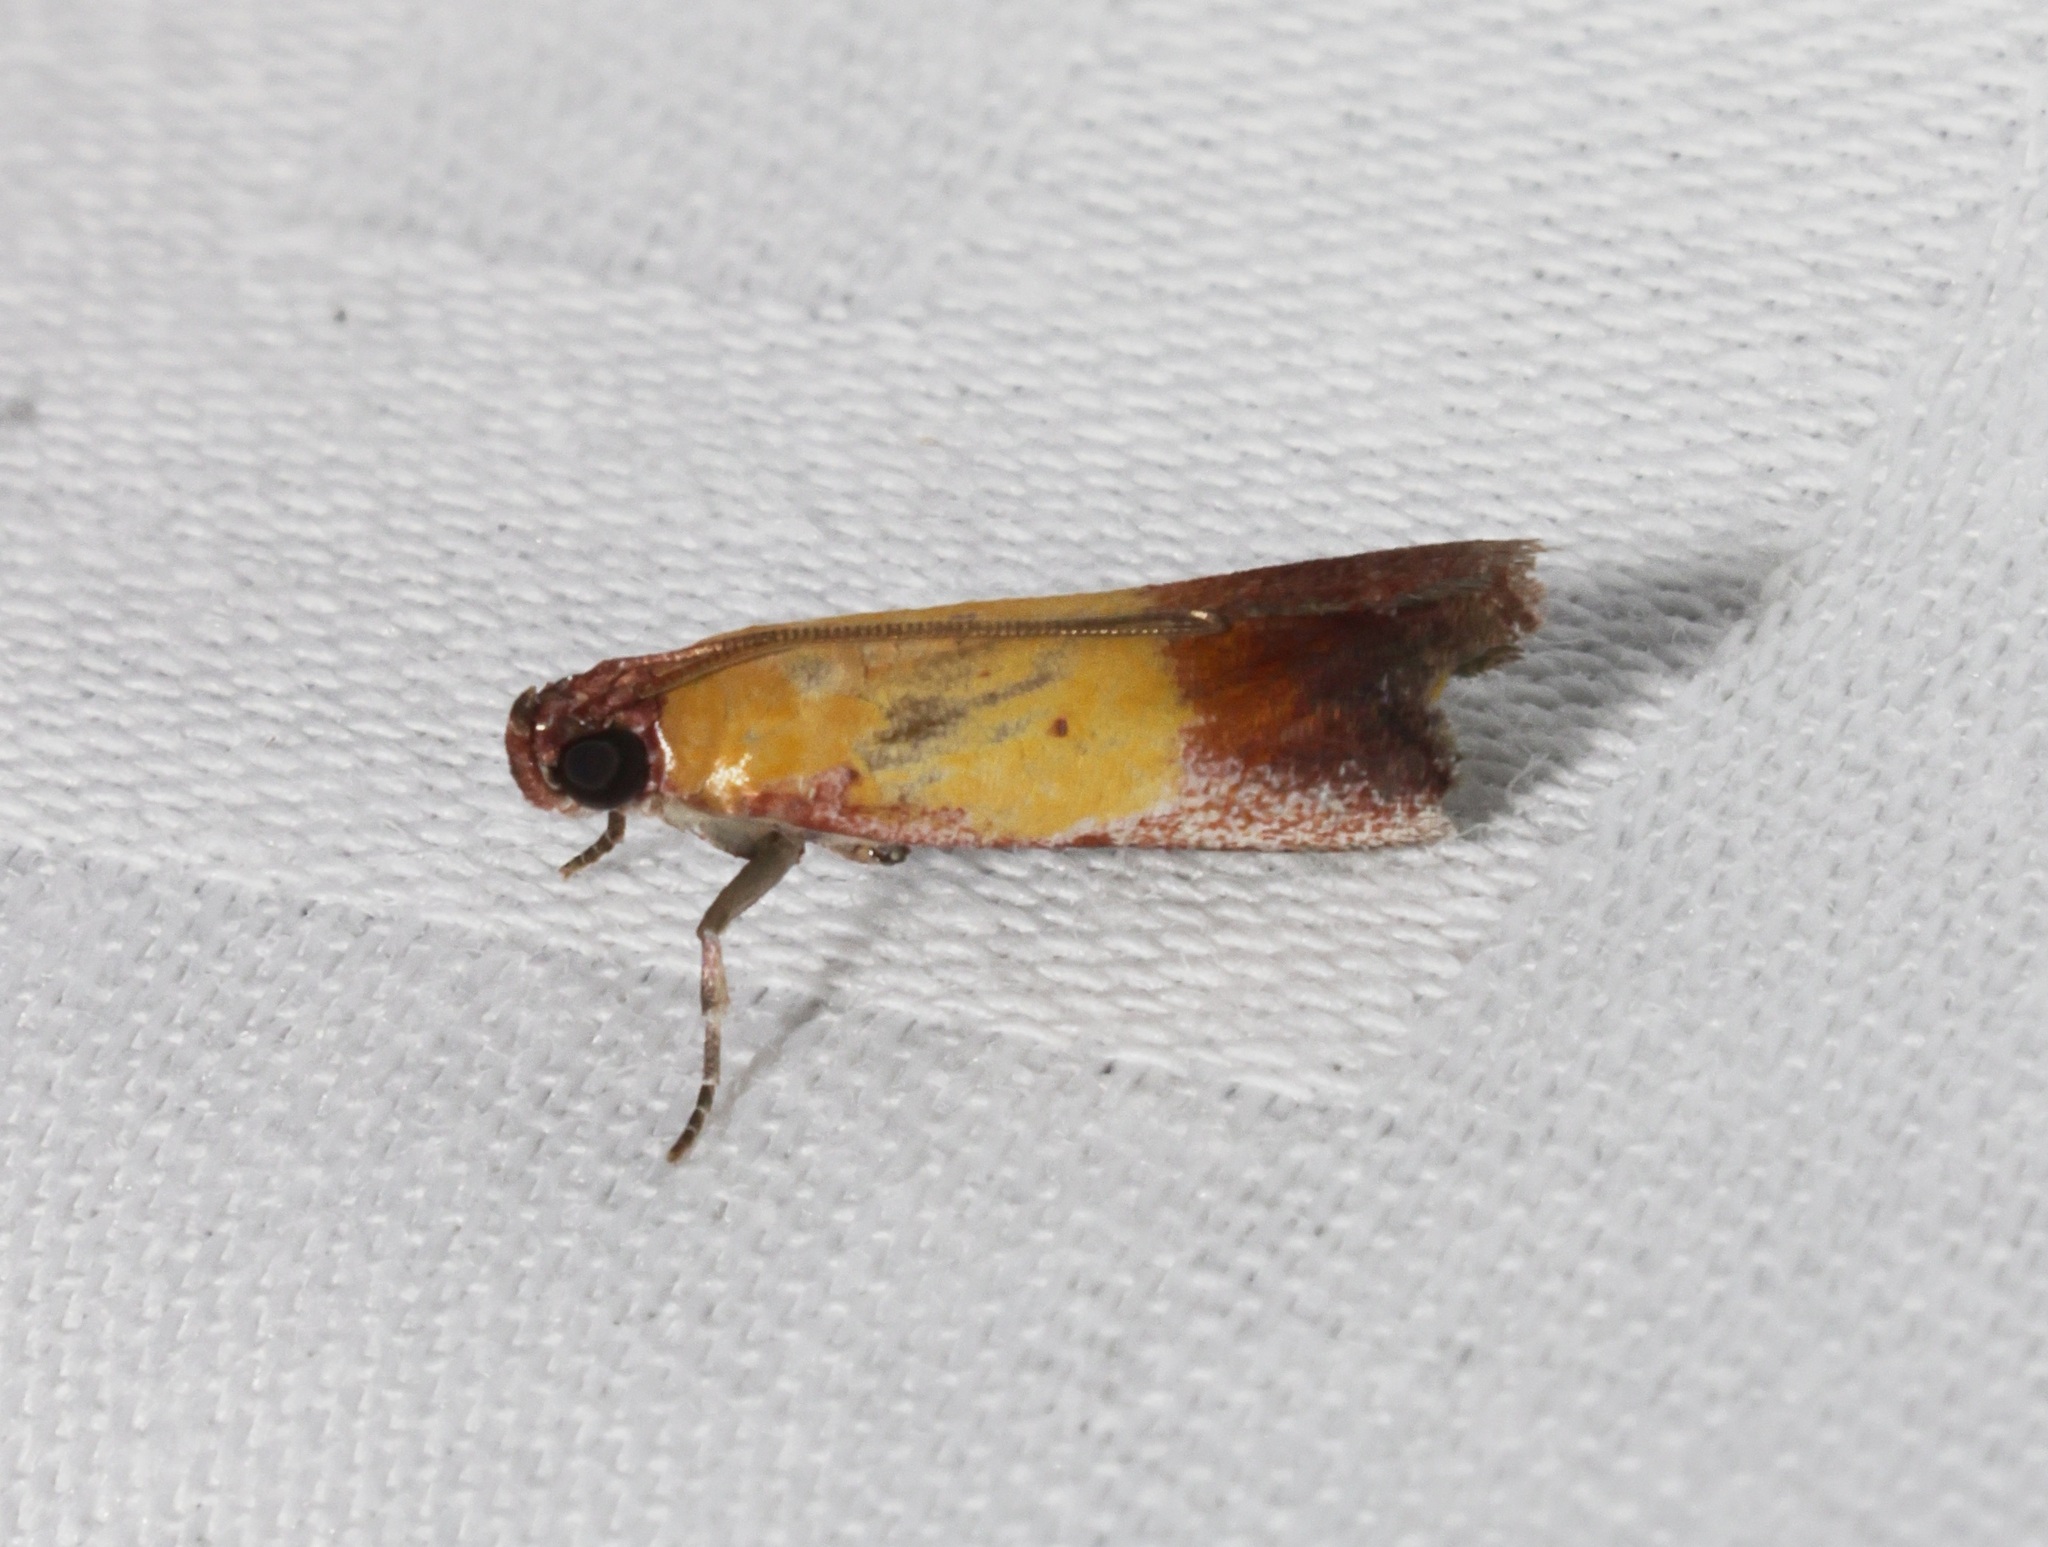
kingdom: Animalia
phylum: Arthropoda
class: Insecta
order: Lepidoptera
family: Pyralidae
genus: Piesmopoda
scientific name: Piesmopoda
